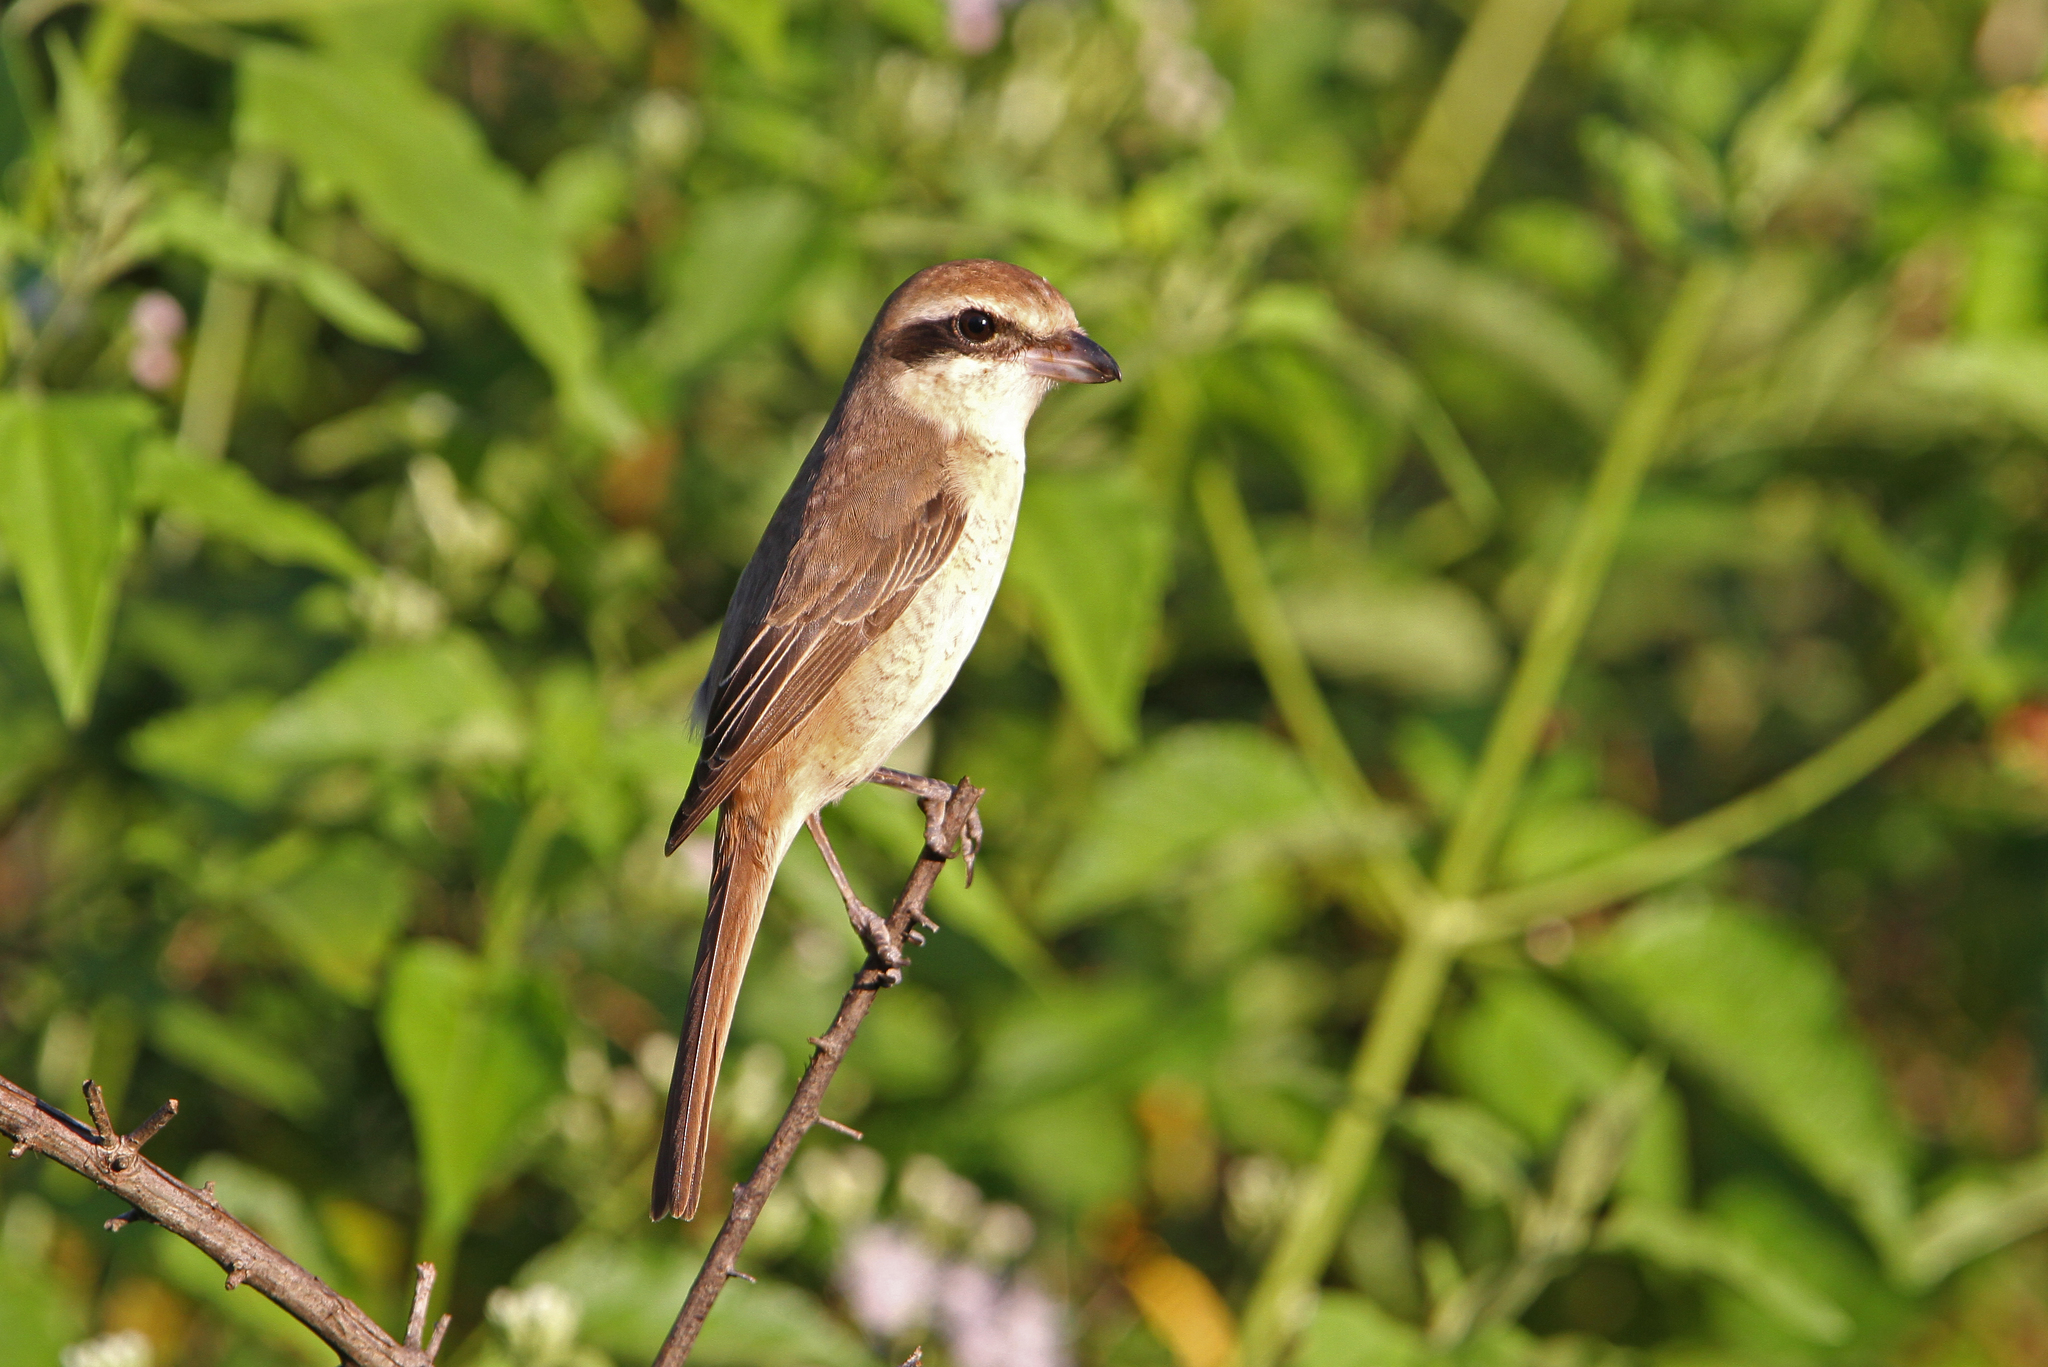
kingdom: Animalia
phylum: Chordata
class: Aves
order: Passeriformes
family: Laniidae
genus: Lanius
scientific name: Lanius cristatus
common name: Brown shrike
